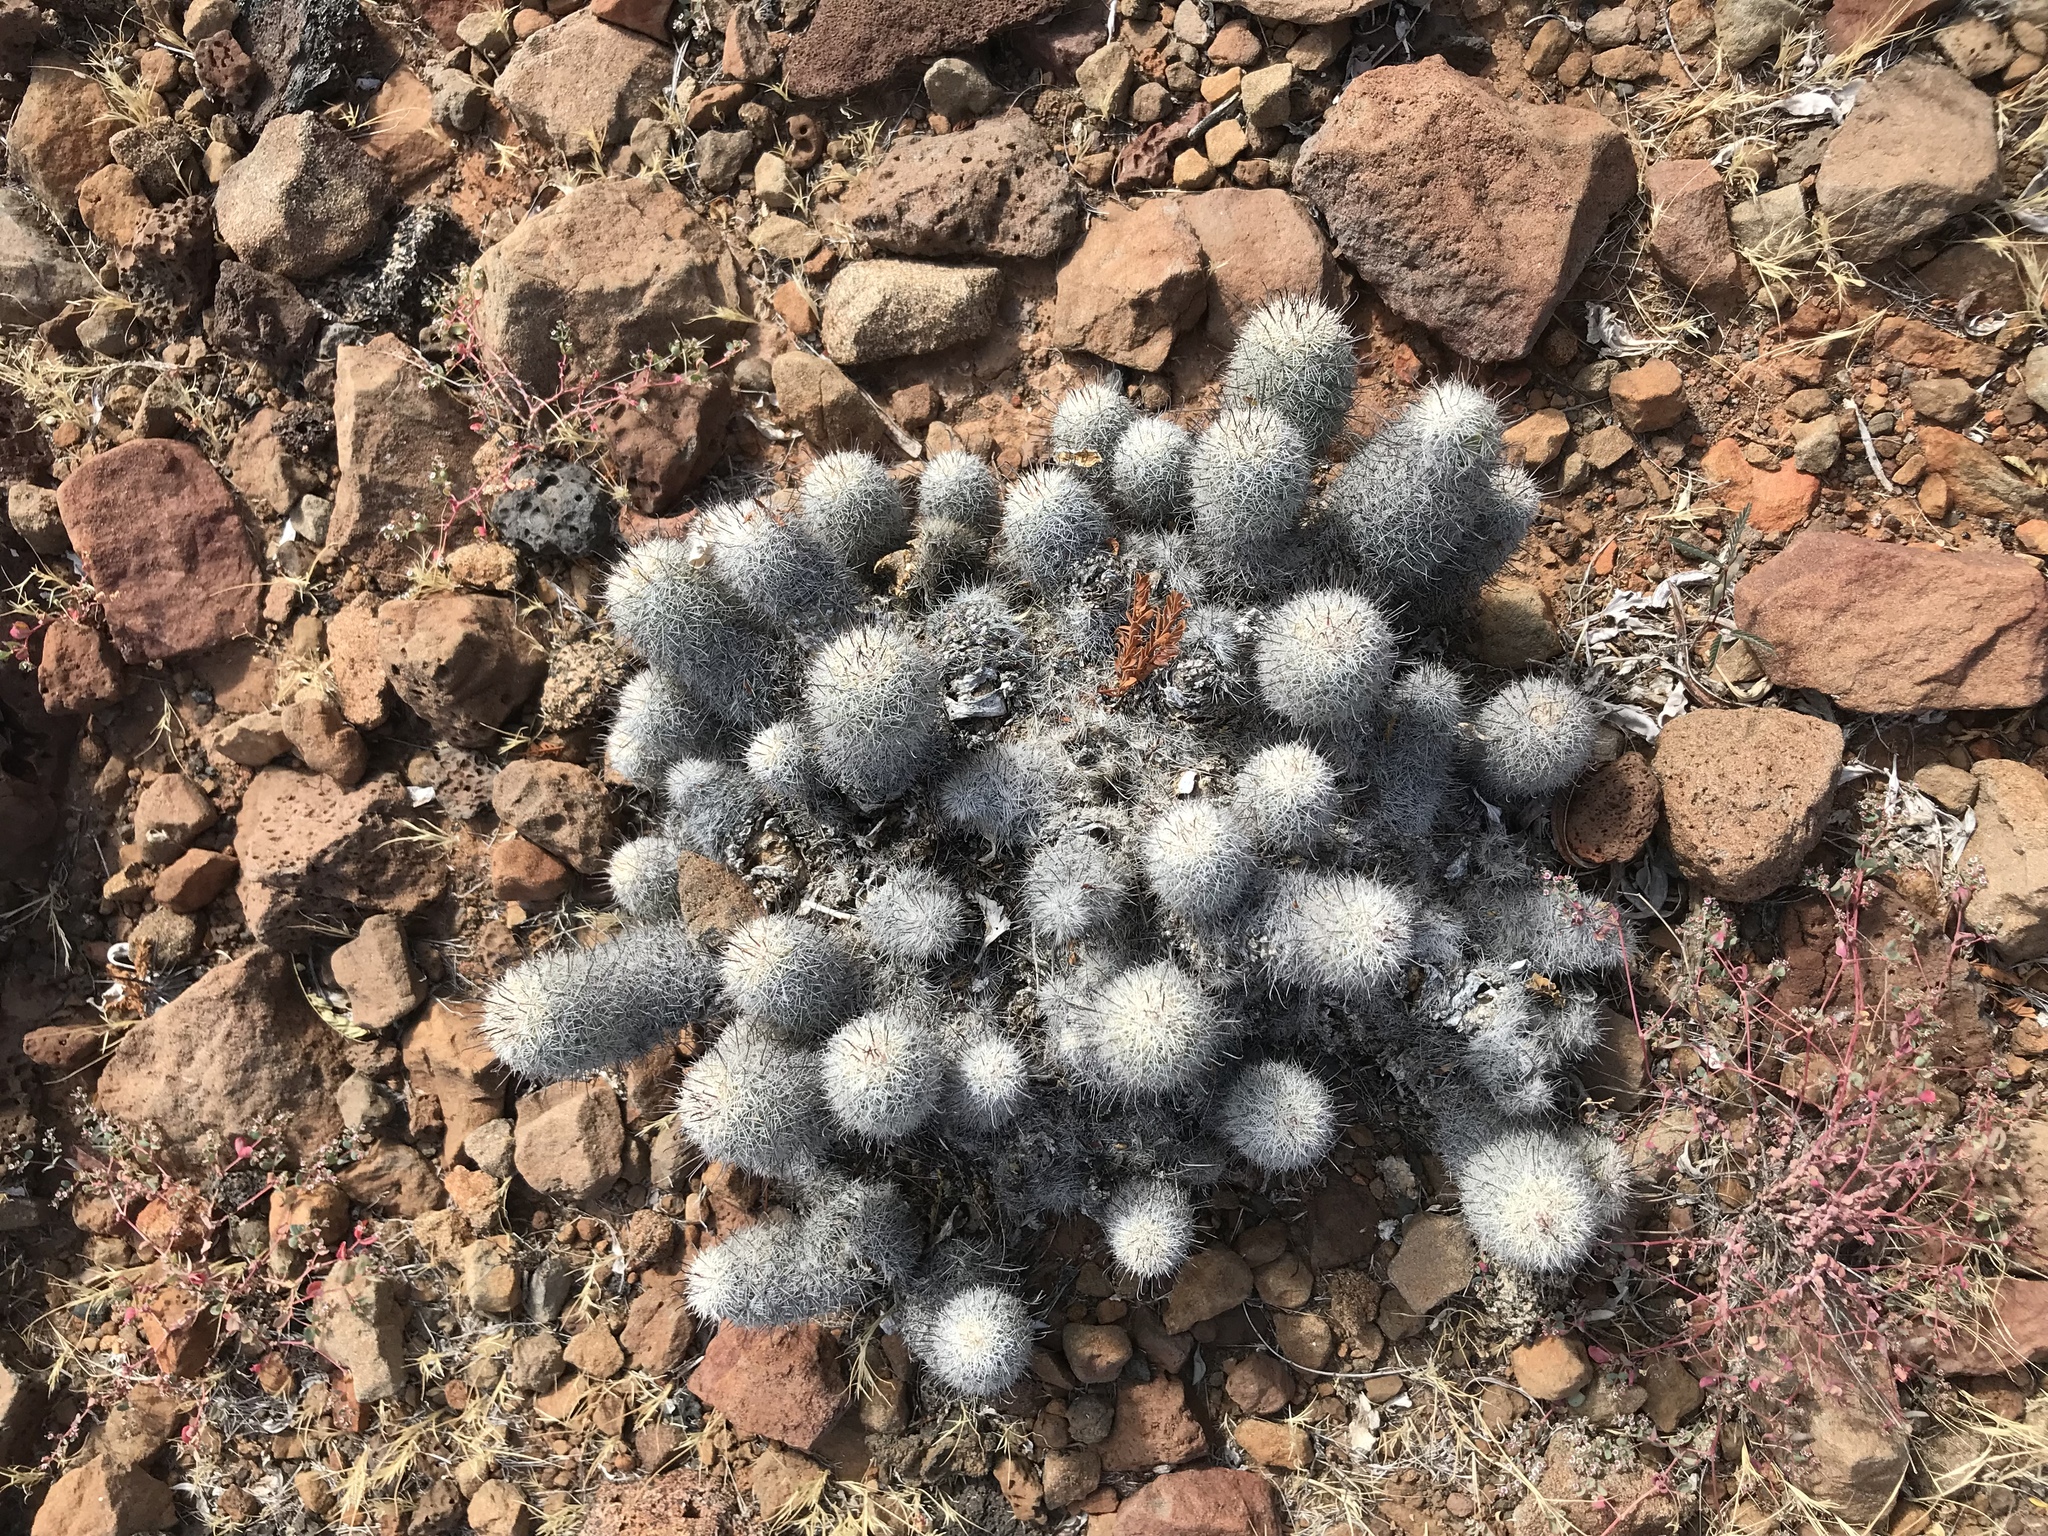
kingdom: Plantae
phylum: Tracheophyta
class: Magnoliopsida
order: Caryophyllales
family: Cactaceae
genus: Cochemiea
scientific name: Cochemiea dioica
